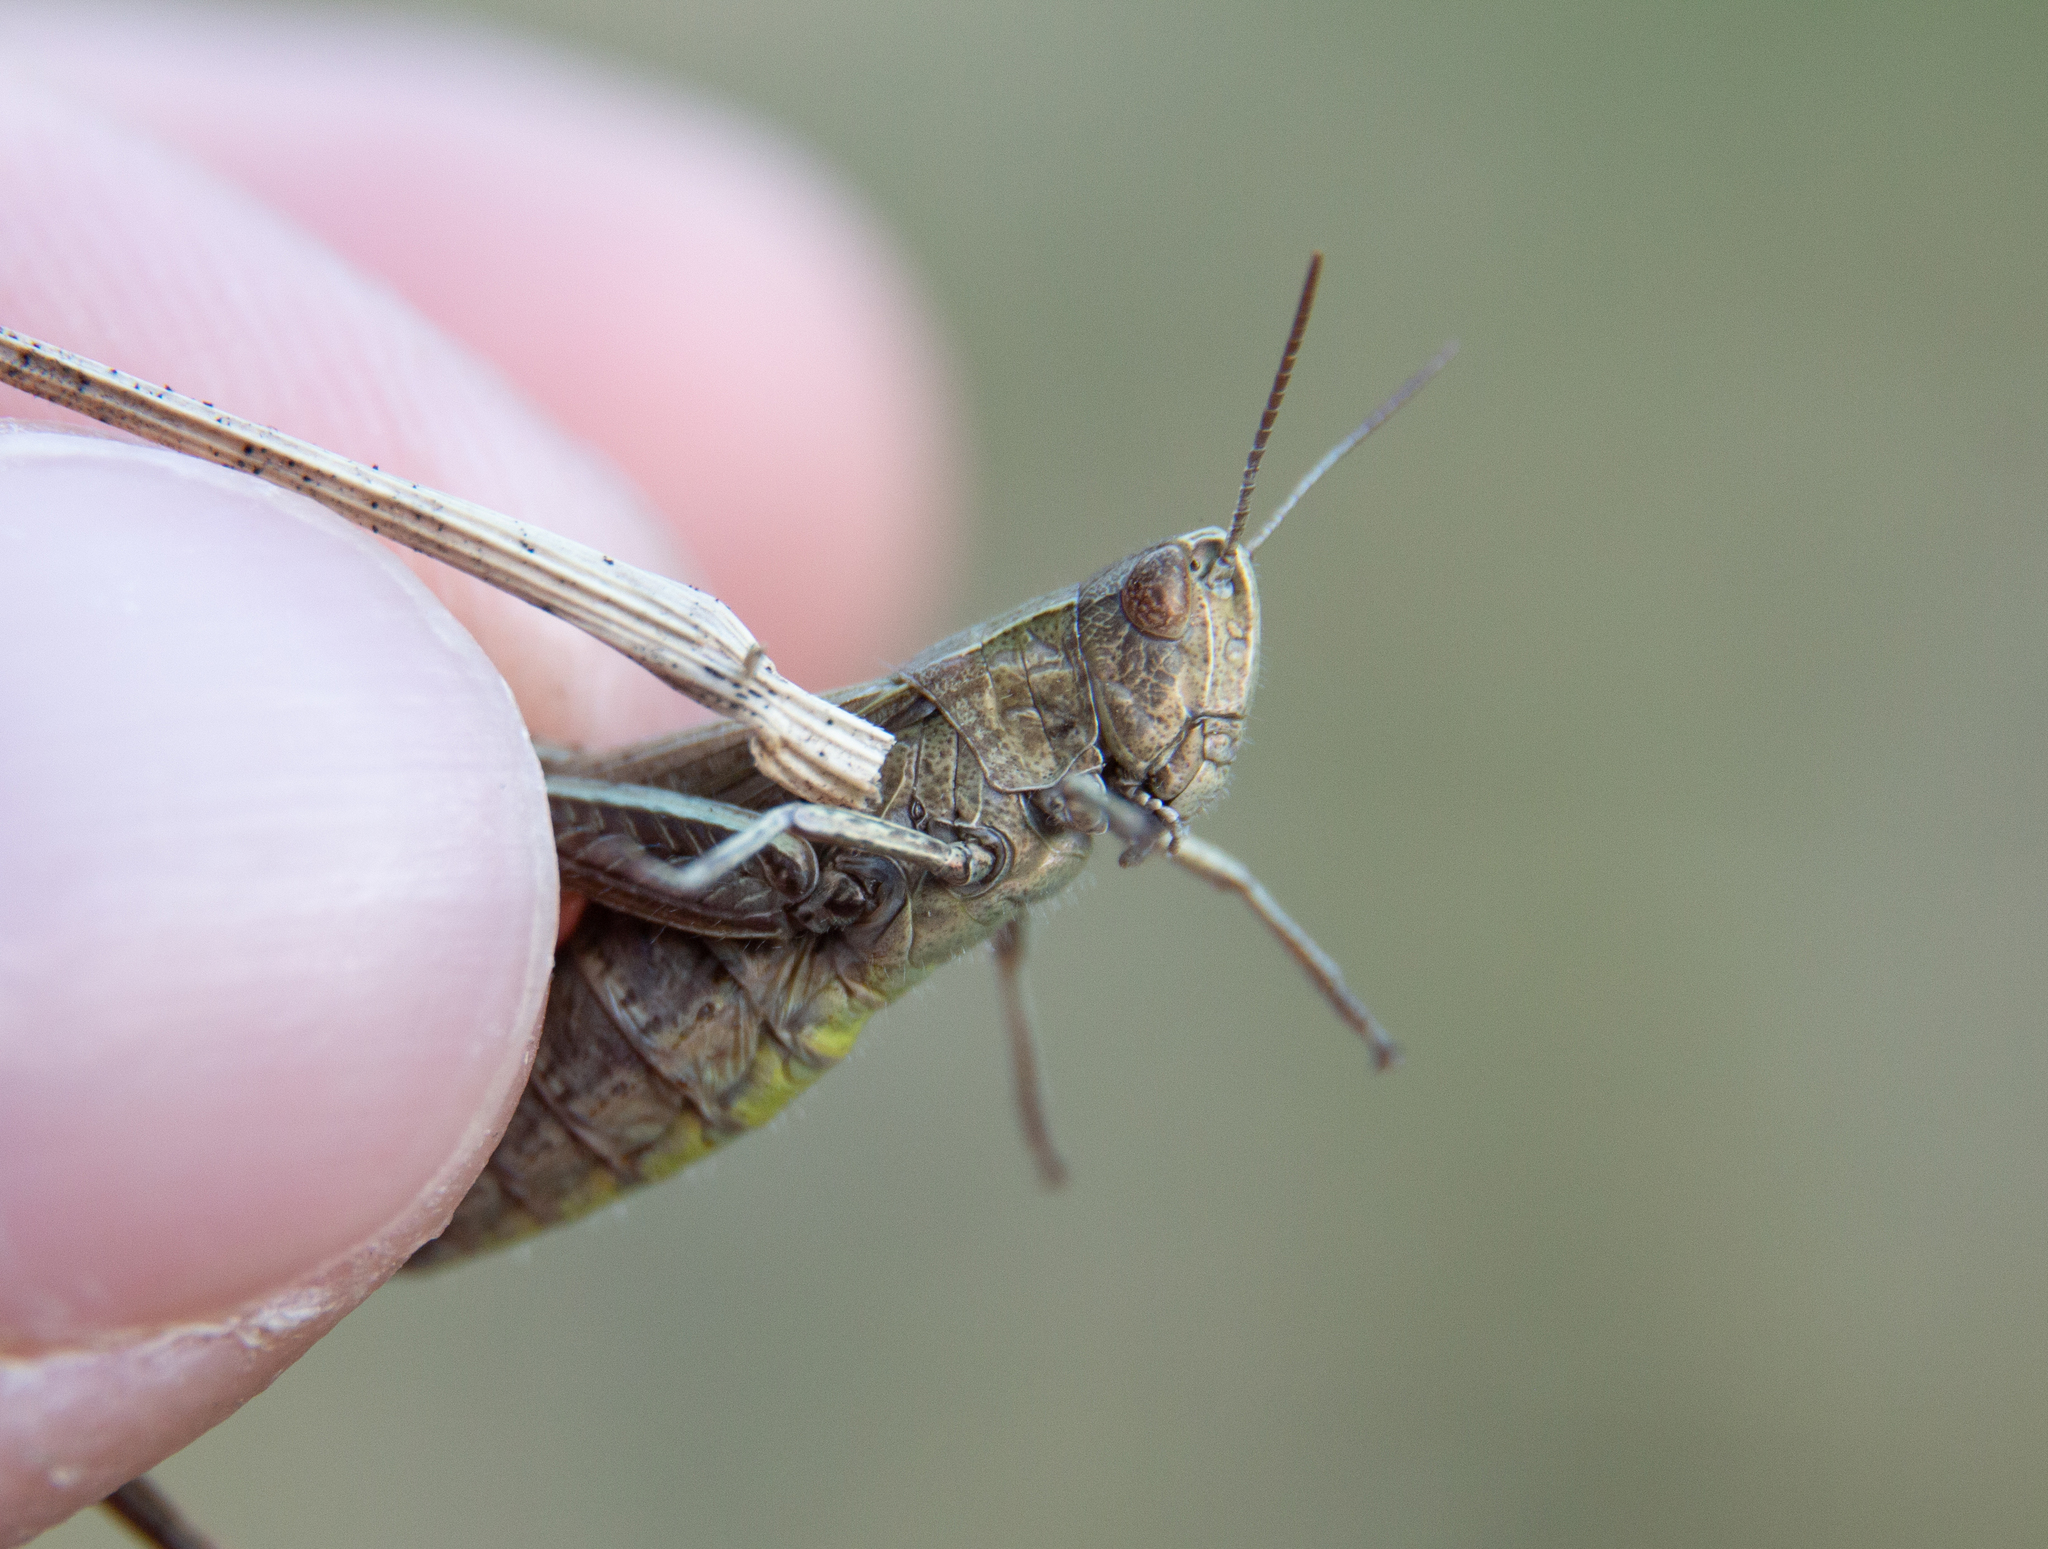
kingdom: Animalia
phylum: Arthropoda
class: Insecta
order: Orthoptera
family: Acrididae
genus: Chorthippus
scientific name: Chorthippus dorsatus
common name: Steppe grasshopper
